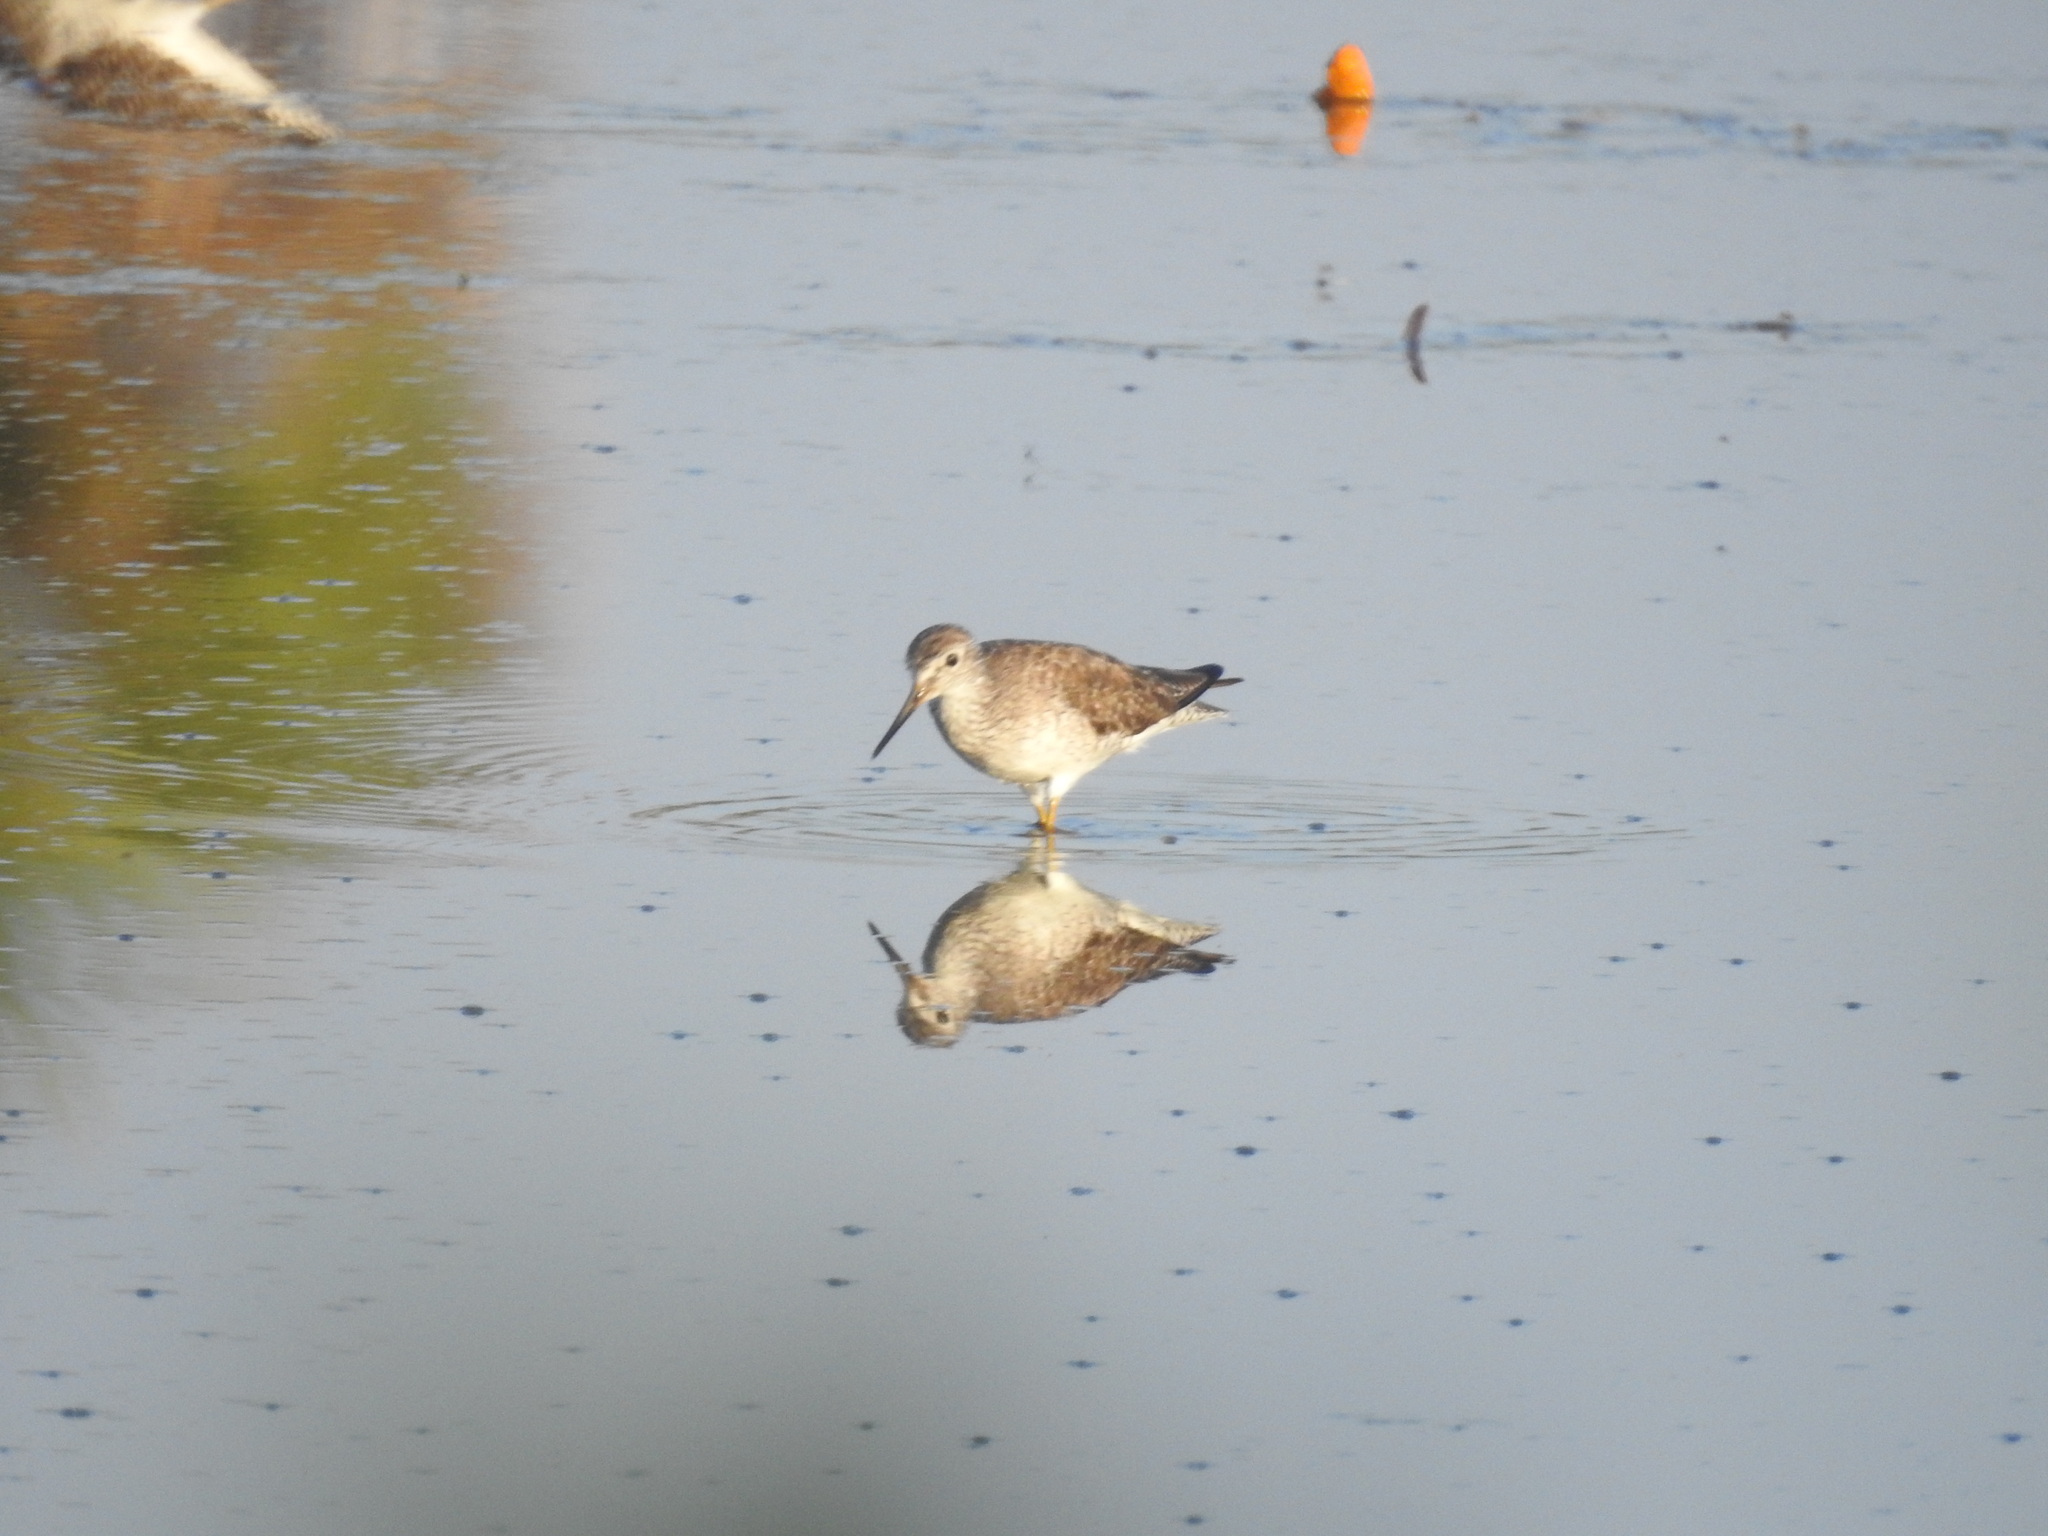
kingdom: Animalia
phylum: Chordata
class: Aves
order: Charadriiformes
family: Scolopacidae
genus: Tringa
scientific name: Tringa flavipes
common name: Lesser yellowlegs
